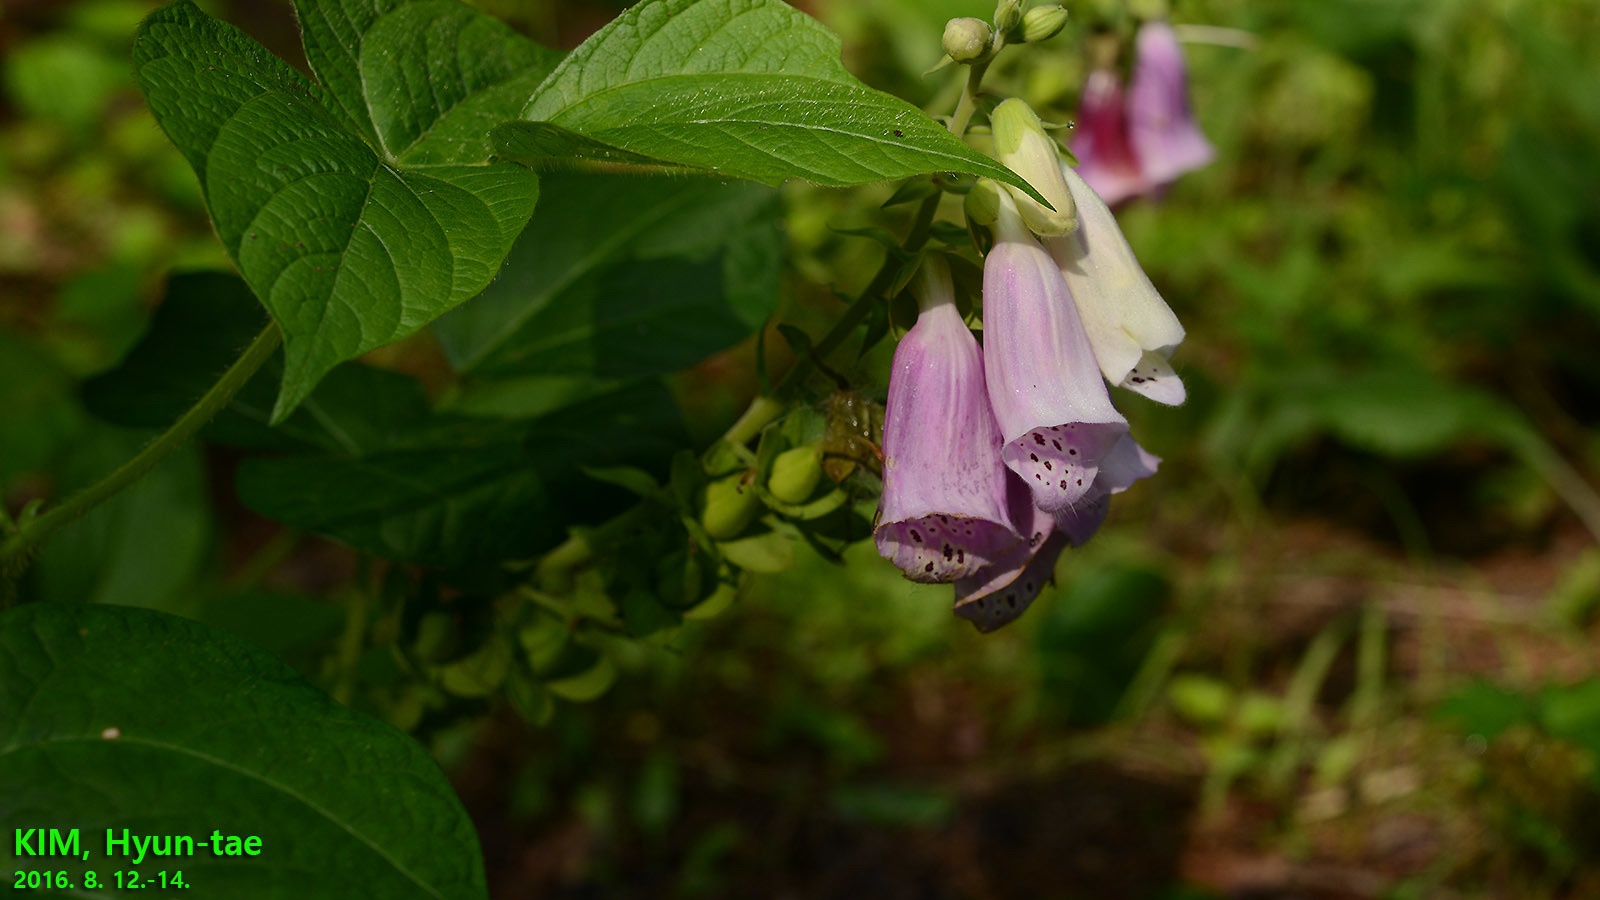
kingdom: Plantae
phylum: Tracheophyta
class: Magnoliopsida
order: Lamiales
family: Plantaginaceae
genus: Digitalis
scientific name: Digitalis purpurea
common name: Foxglove
